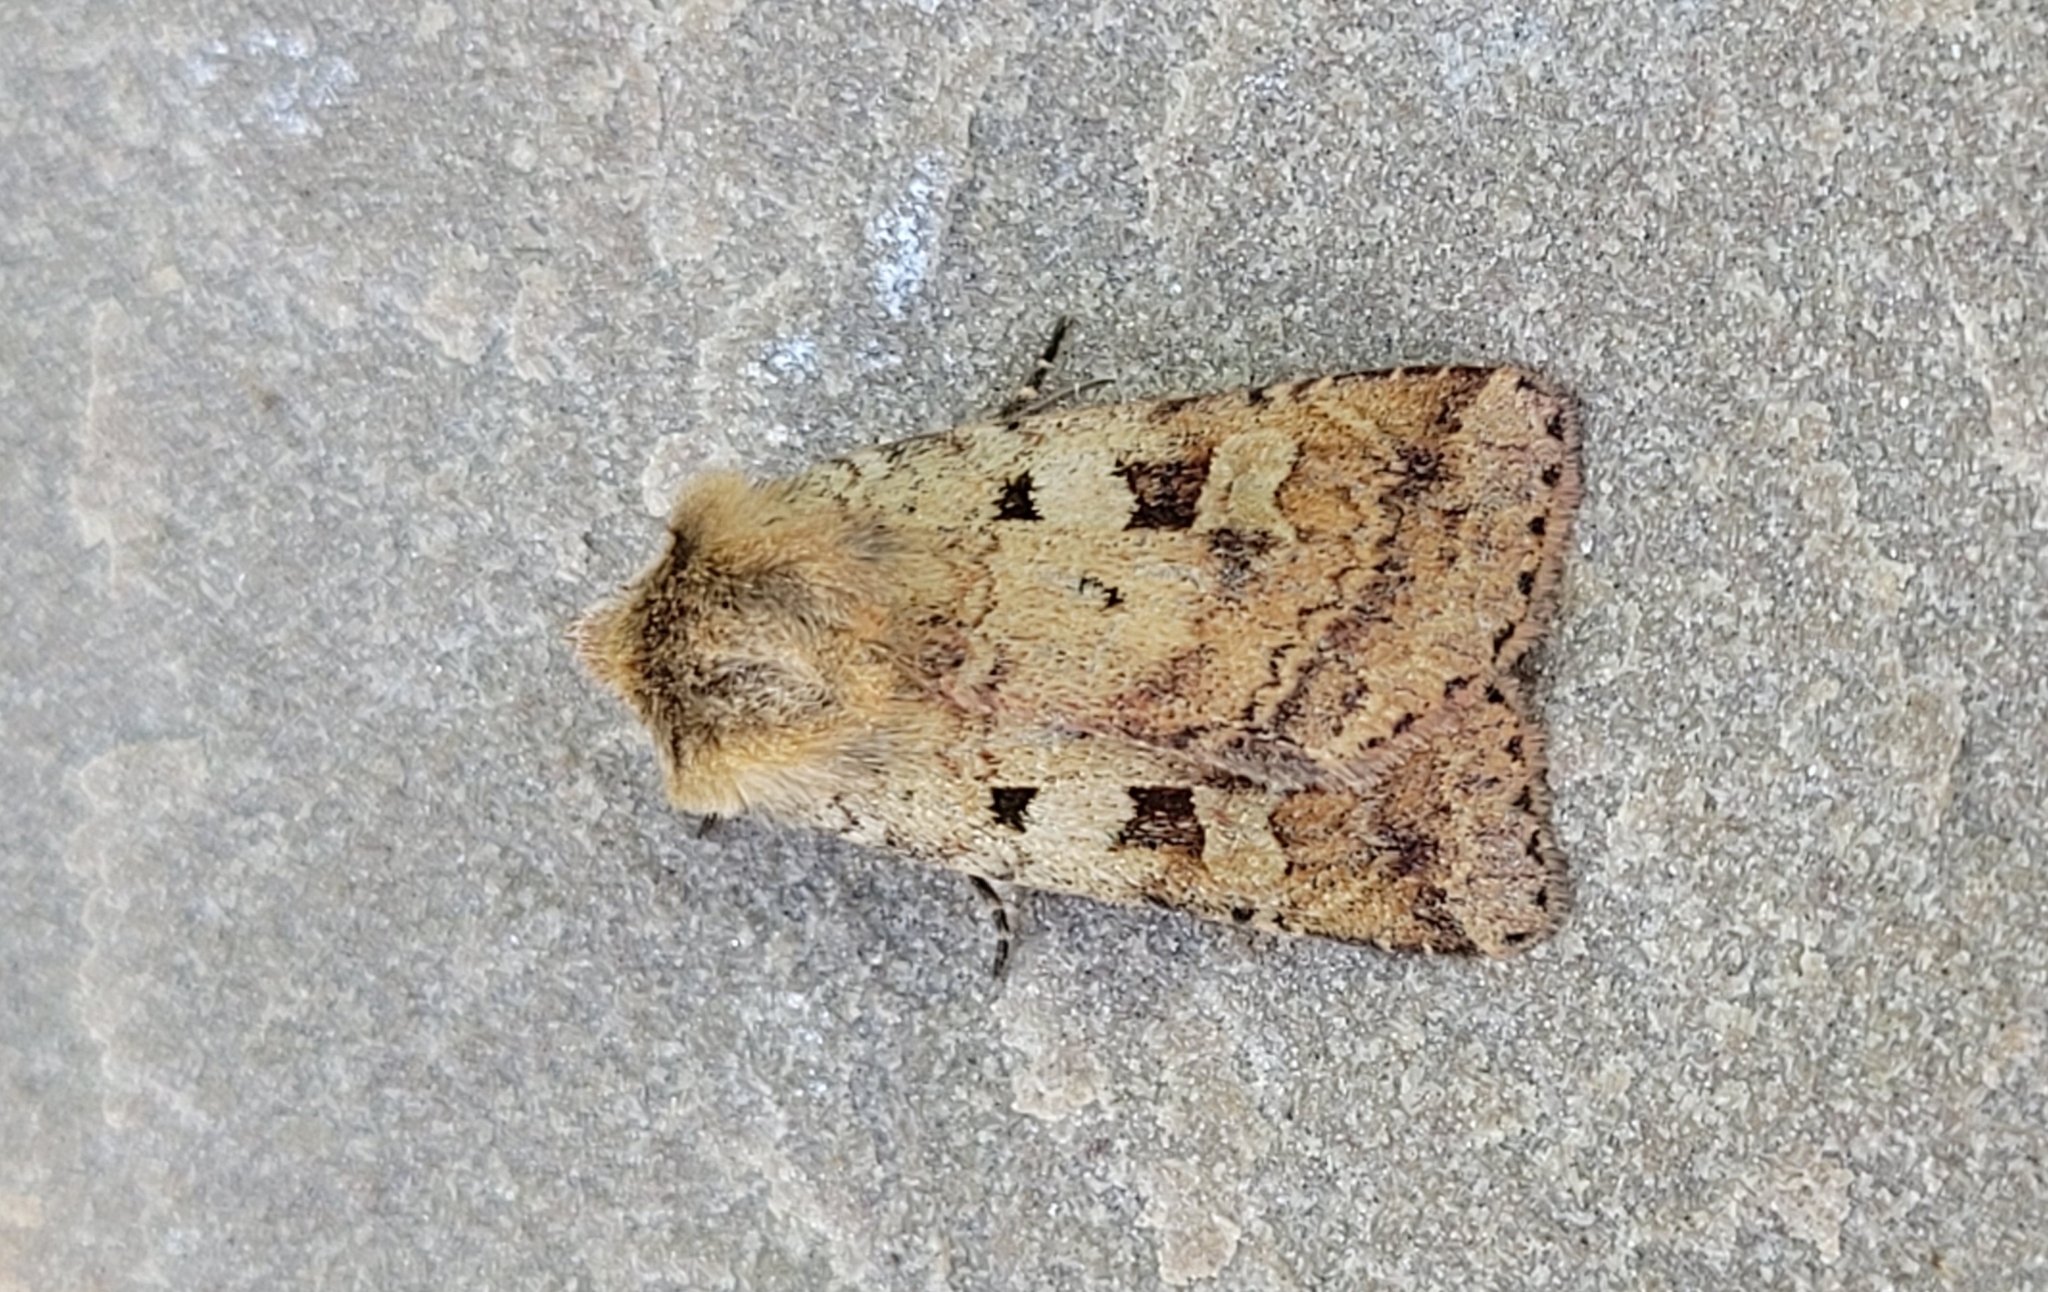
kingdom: Animalia
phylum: Arthropoda
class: Insecta
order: Lepidoptera
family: Noctuidae
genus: Diarsia
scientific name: Diarsia mendica
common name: Ingrailed clay
